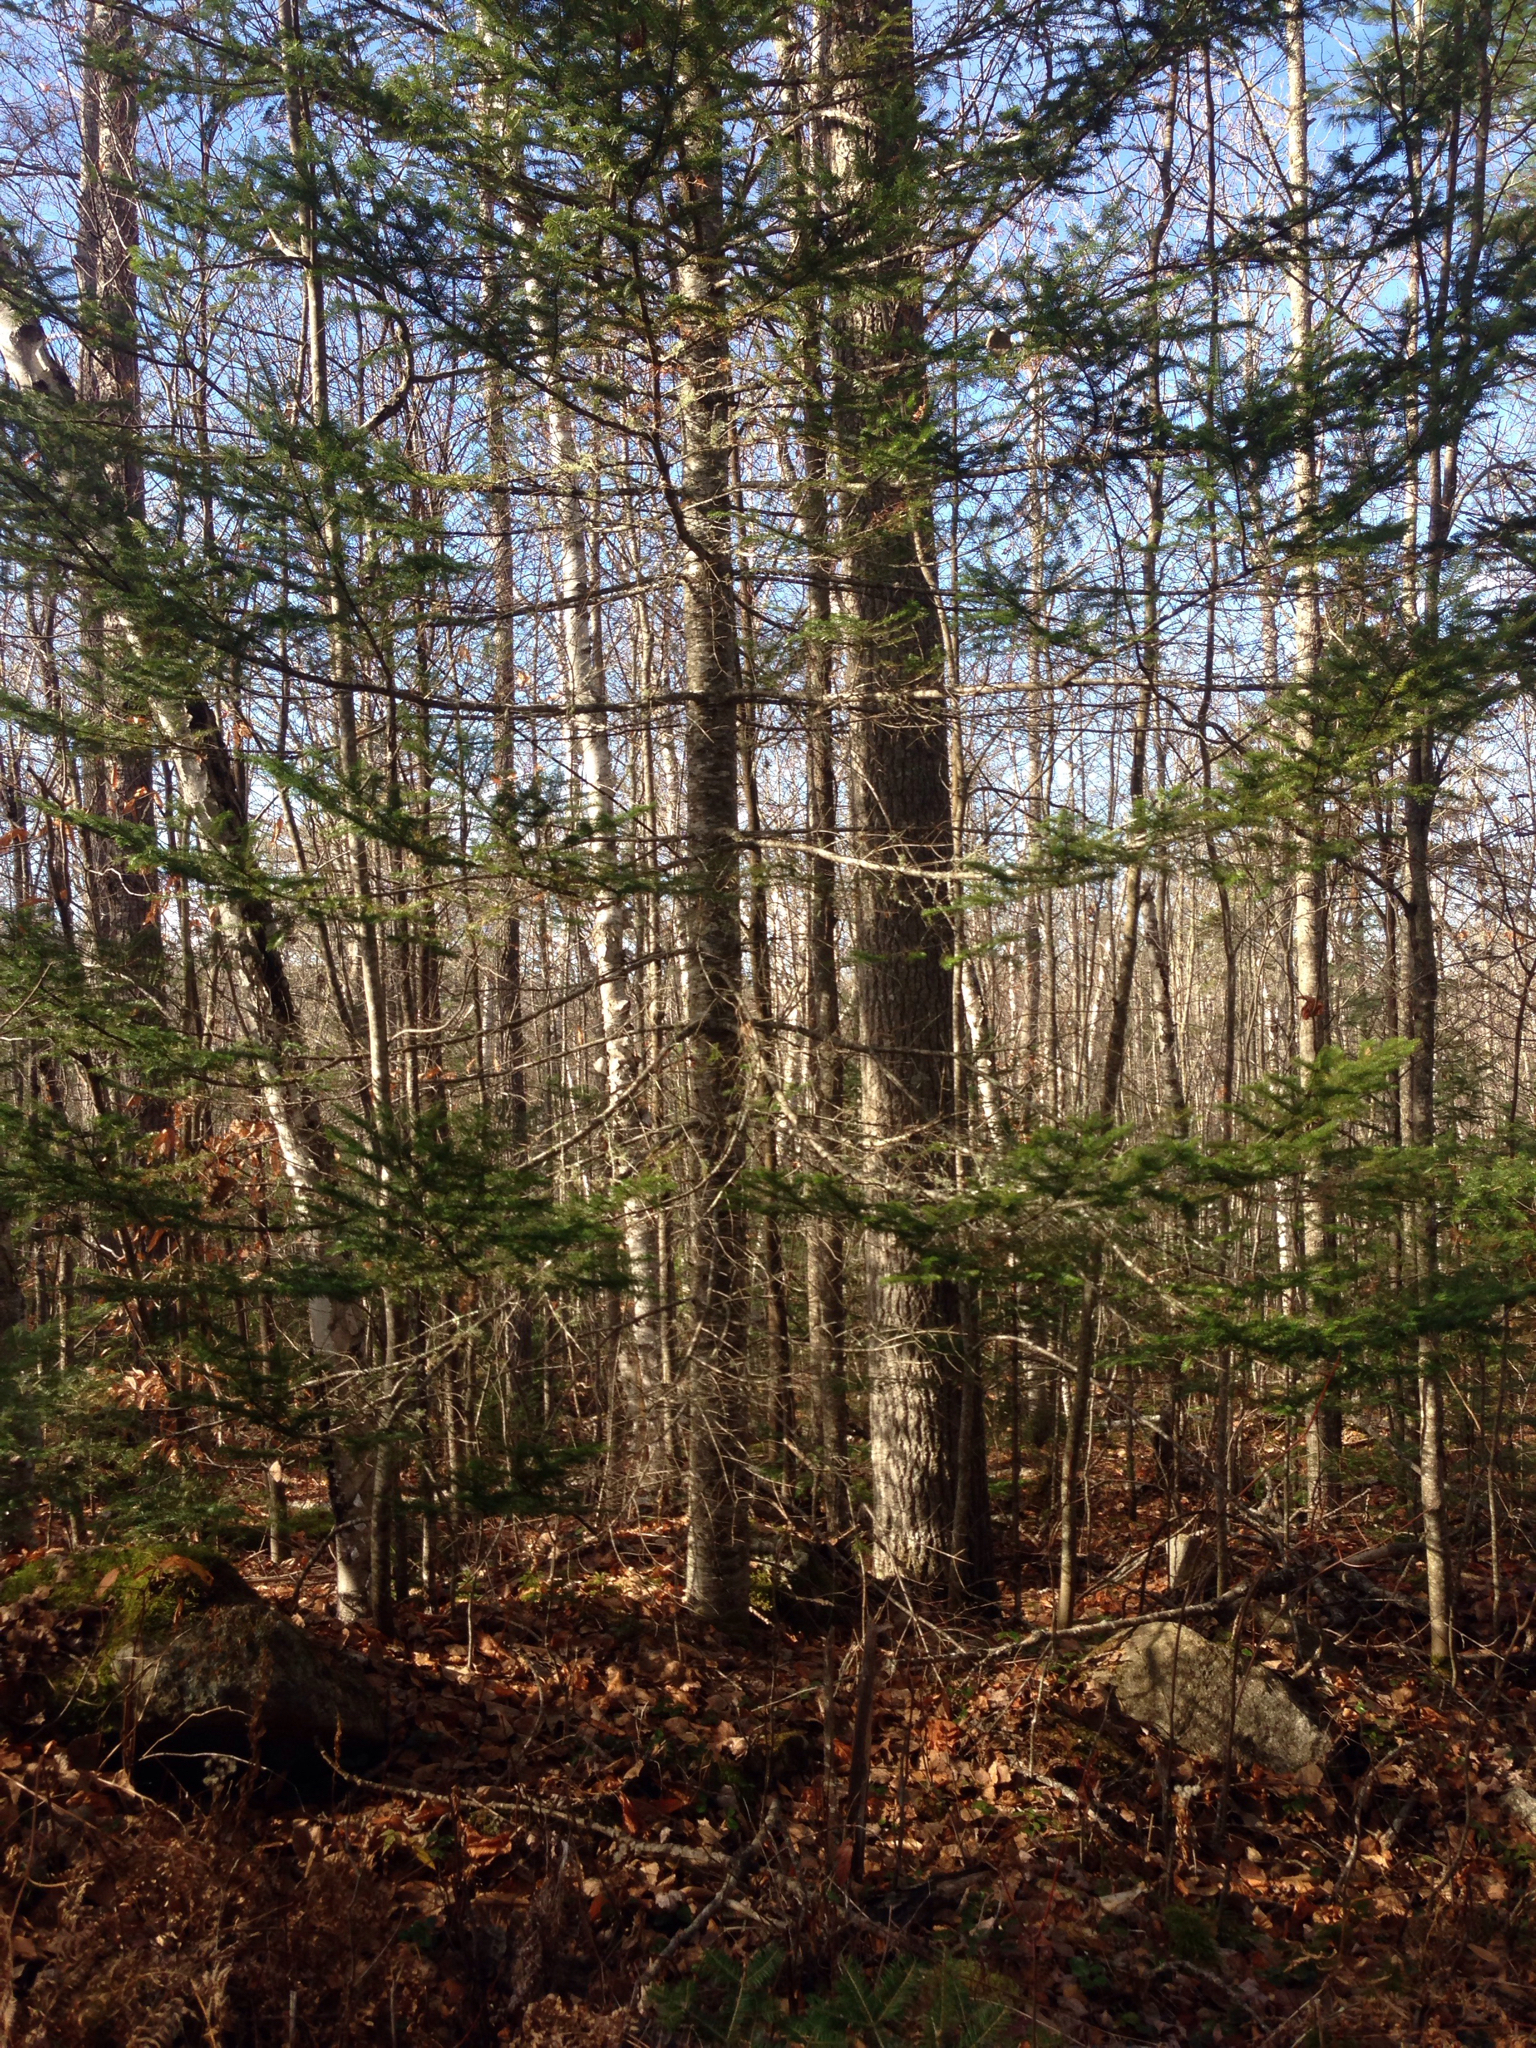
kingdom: Plantae
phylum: Tracheophyta
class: Pinopsida
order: Pinales
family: Pinaceae
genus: Abies
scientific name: Abies balsamea
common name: Balsam fir
